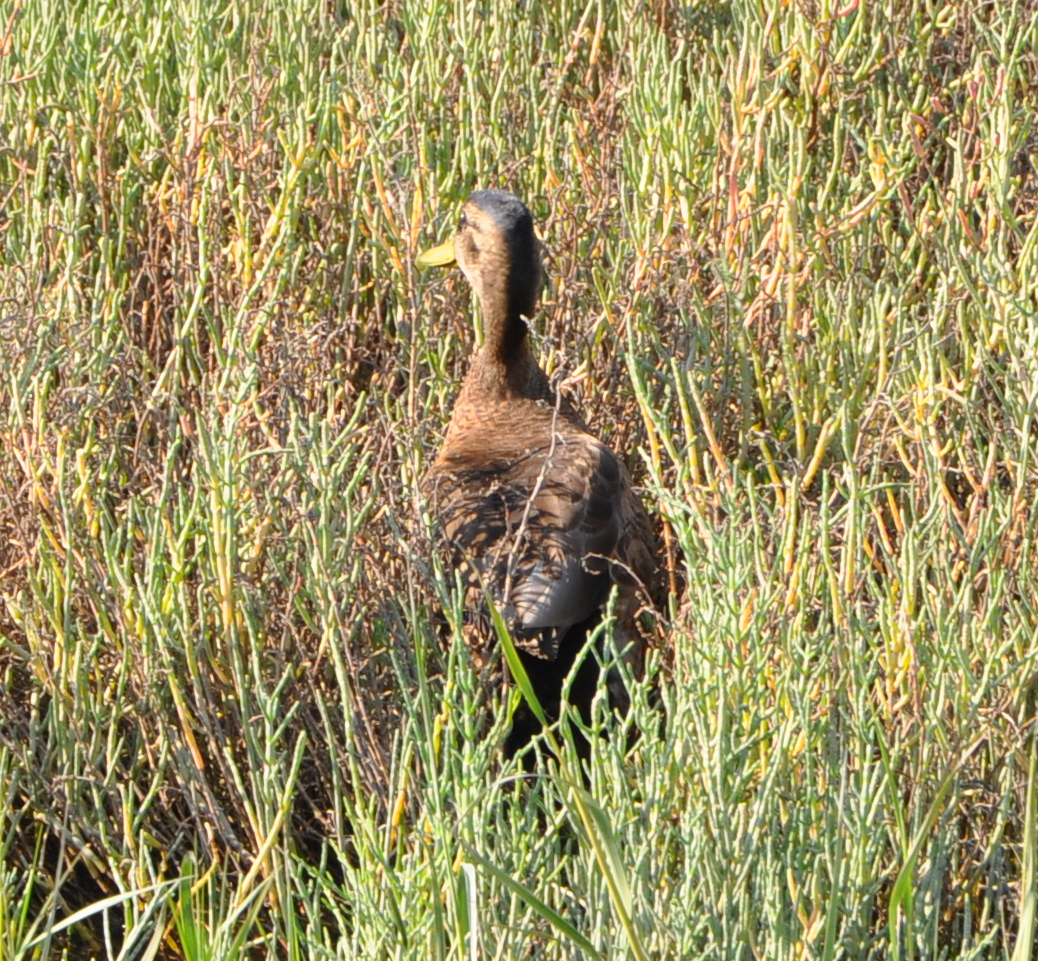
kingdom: Animalia
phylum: Chordata
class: Aves
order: Anseriformes
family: Anatidae
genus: Anas
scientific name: Anas platyrhynchos
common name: Mallard
